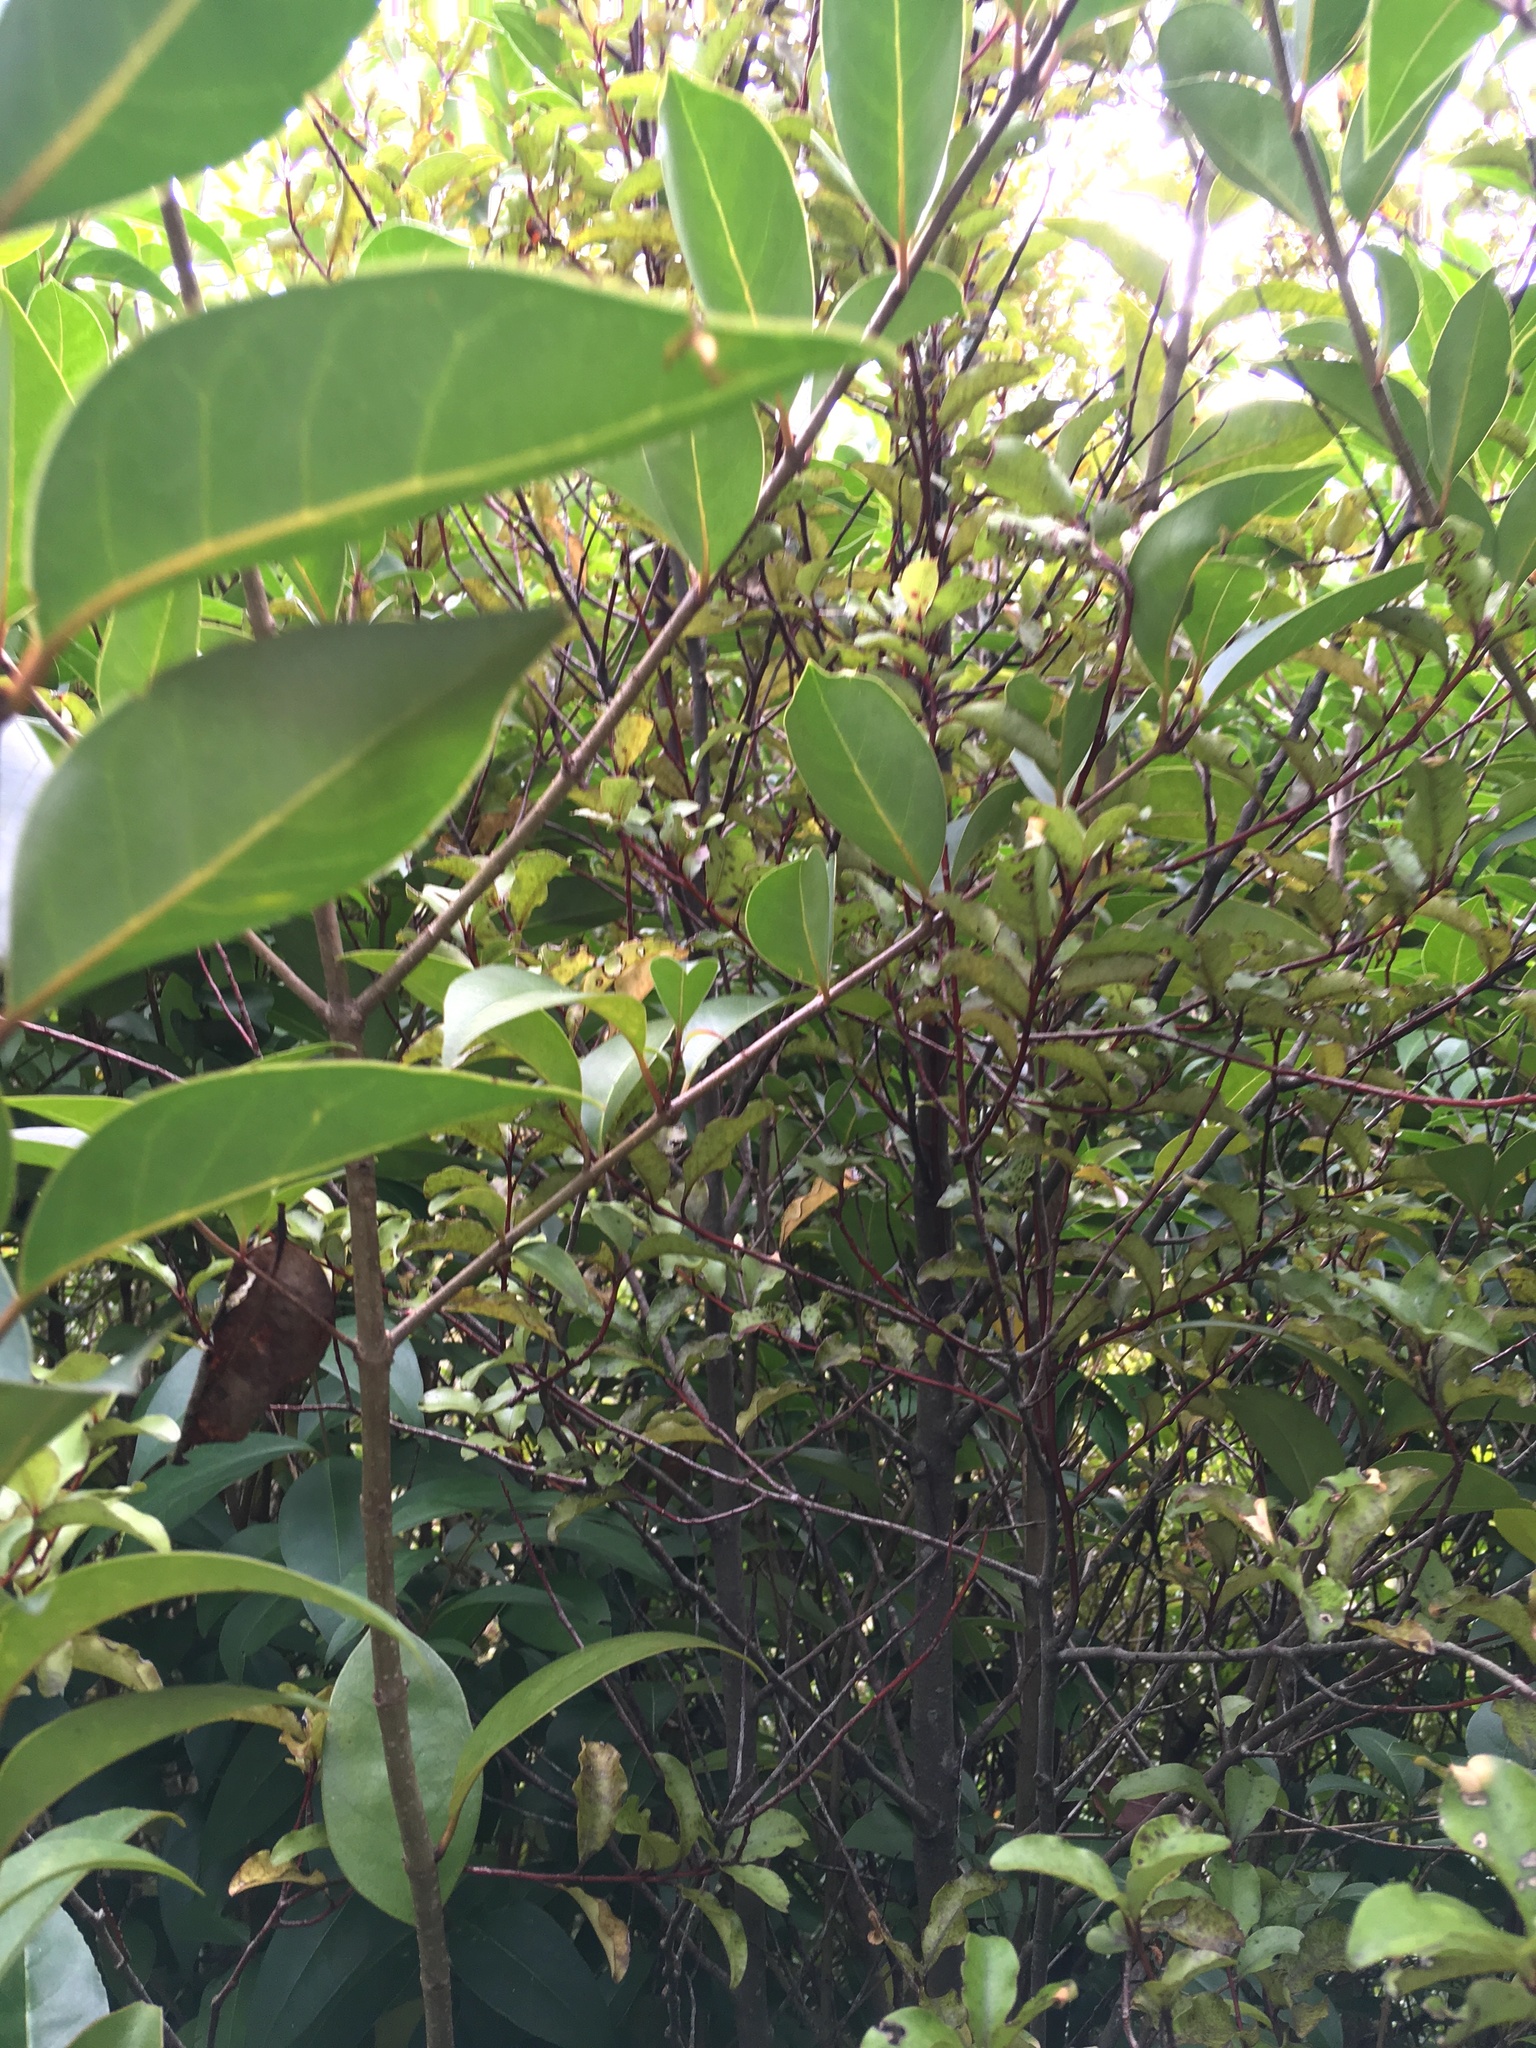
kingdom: Plantae
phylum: Tracheophyta
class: Magnoliopsida
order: Ericales
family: Primulaceae
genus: Myrsine
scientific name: Myrsine australis
